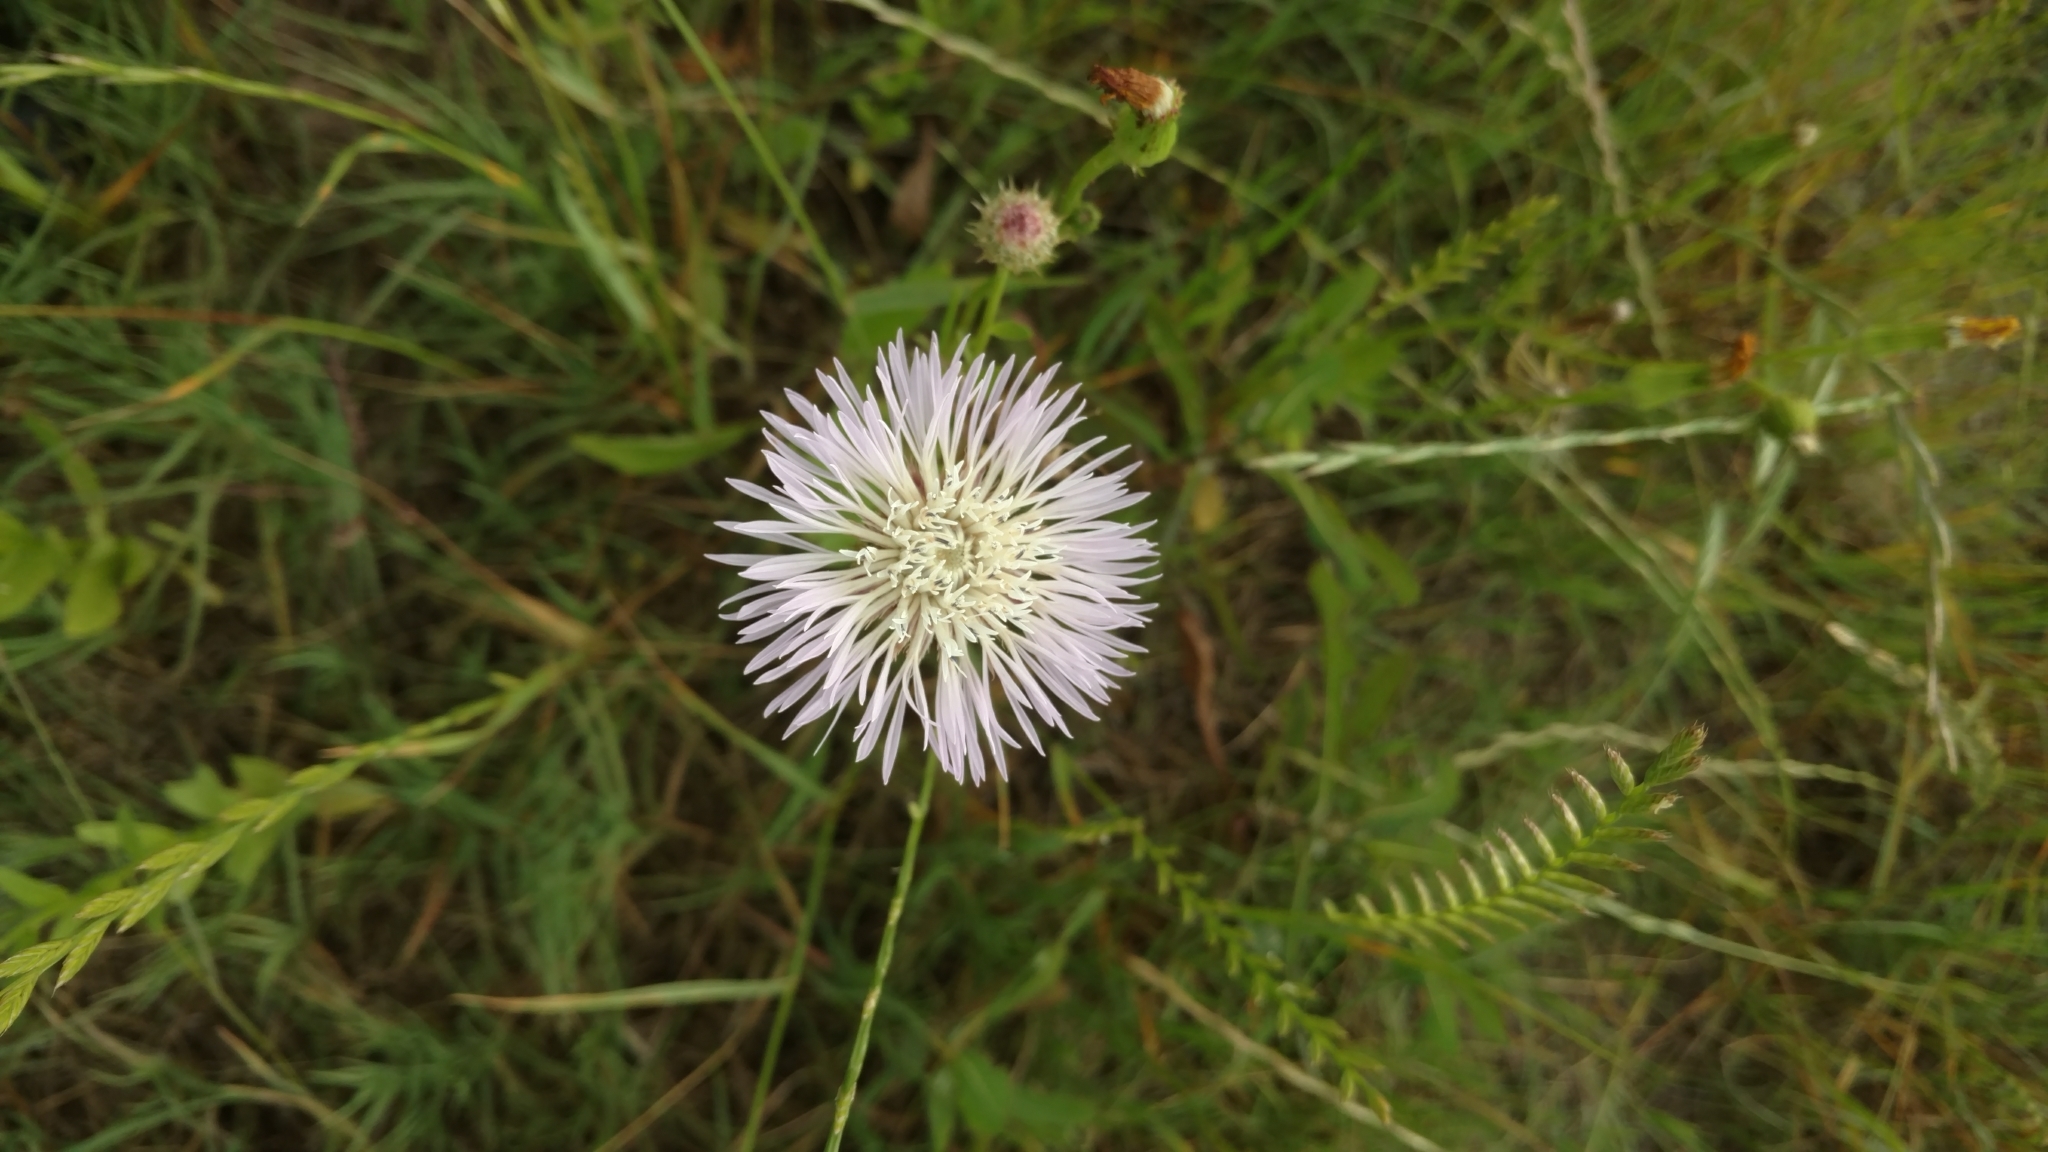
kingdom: Plantae
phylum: Tracheophyta
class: Magnoliopsida
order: Asterales
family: Asteraceae
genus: Plectocephalus
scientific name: Plectocephalus americanus
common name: American basket-flower
